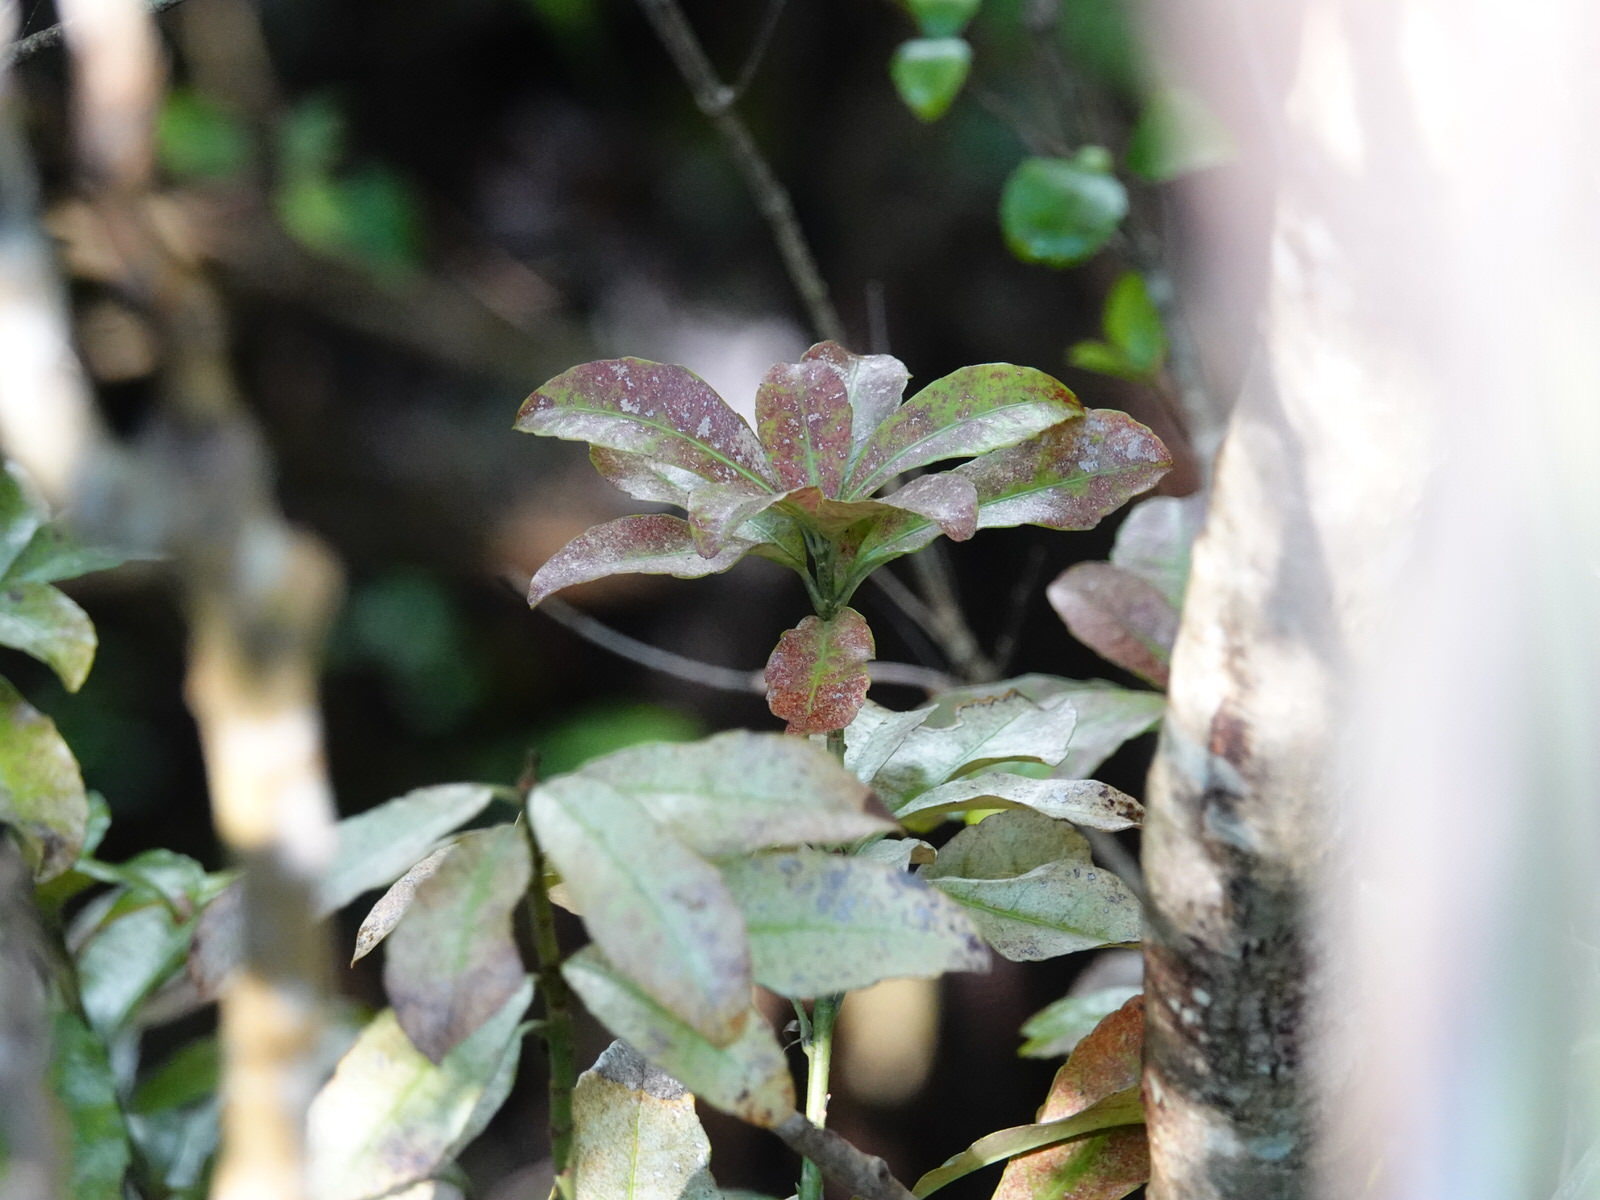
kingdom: Plantae
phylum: Tracheophyta
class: Magnoliopsida
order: Asterales
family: Alseuosmiaceae
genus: Alseuosmia
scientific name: Alseuosmia macrophylla
